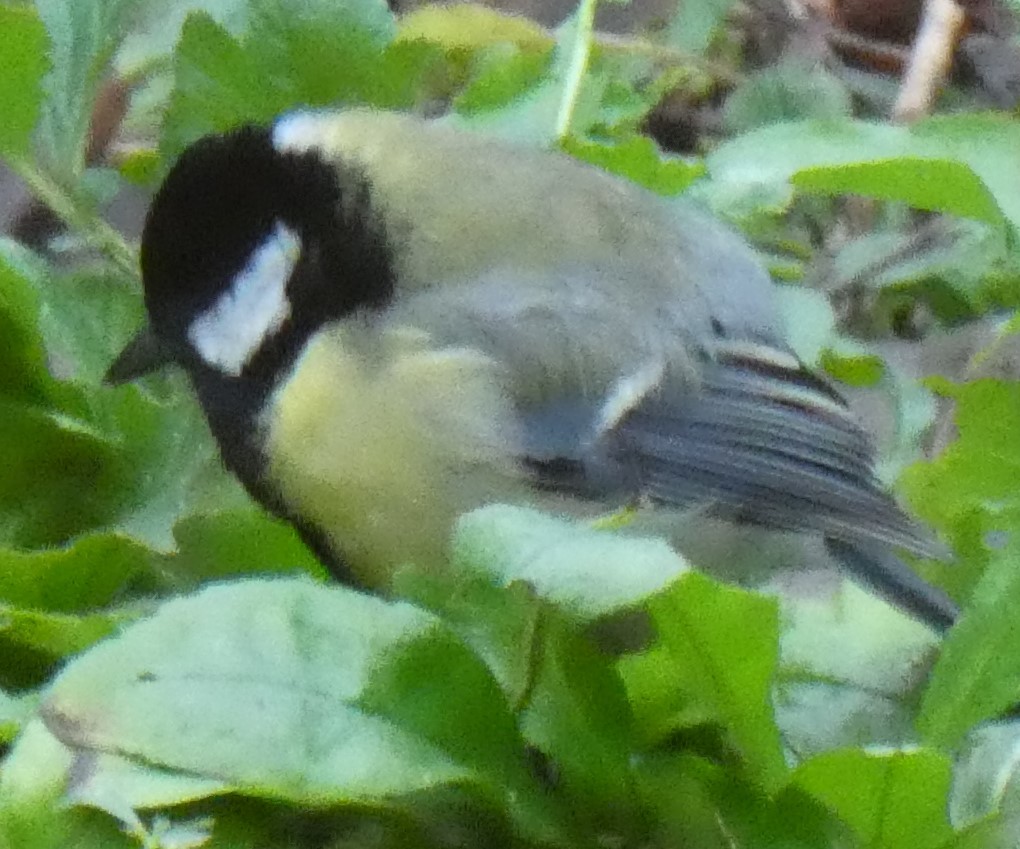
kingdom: Animalia
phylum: Chordata
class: Aves
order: Passeriformes
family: Paridae
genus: Parus
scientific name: Parus major
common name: Great tit
